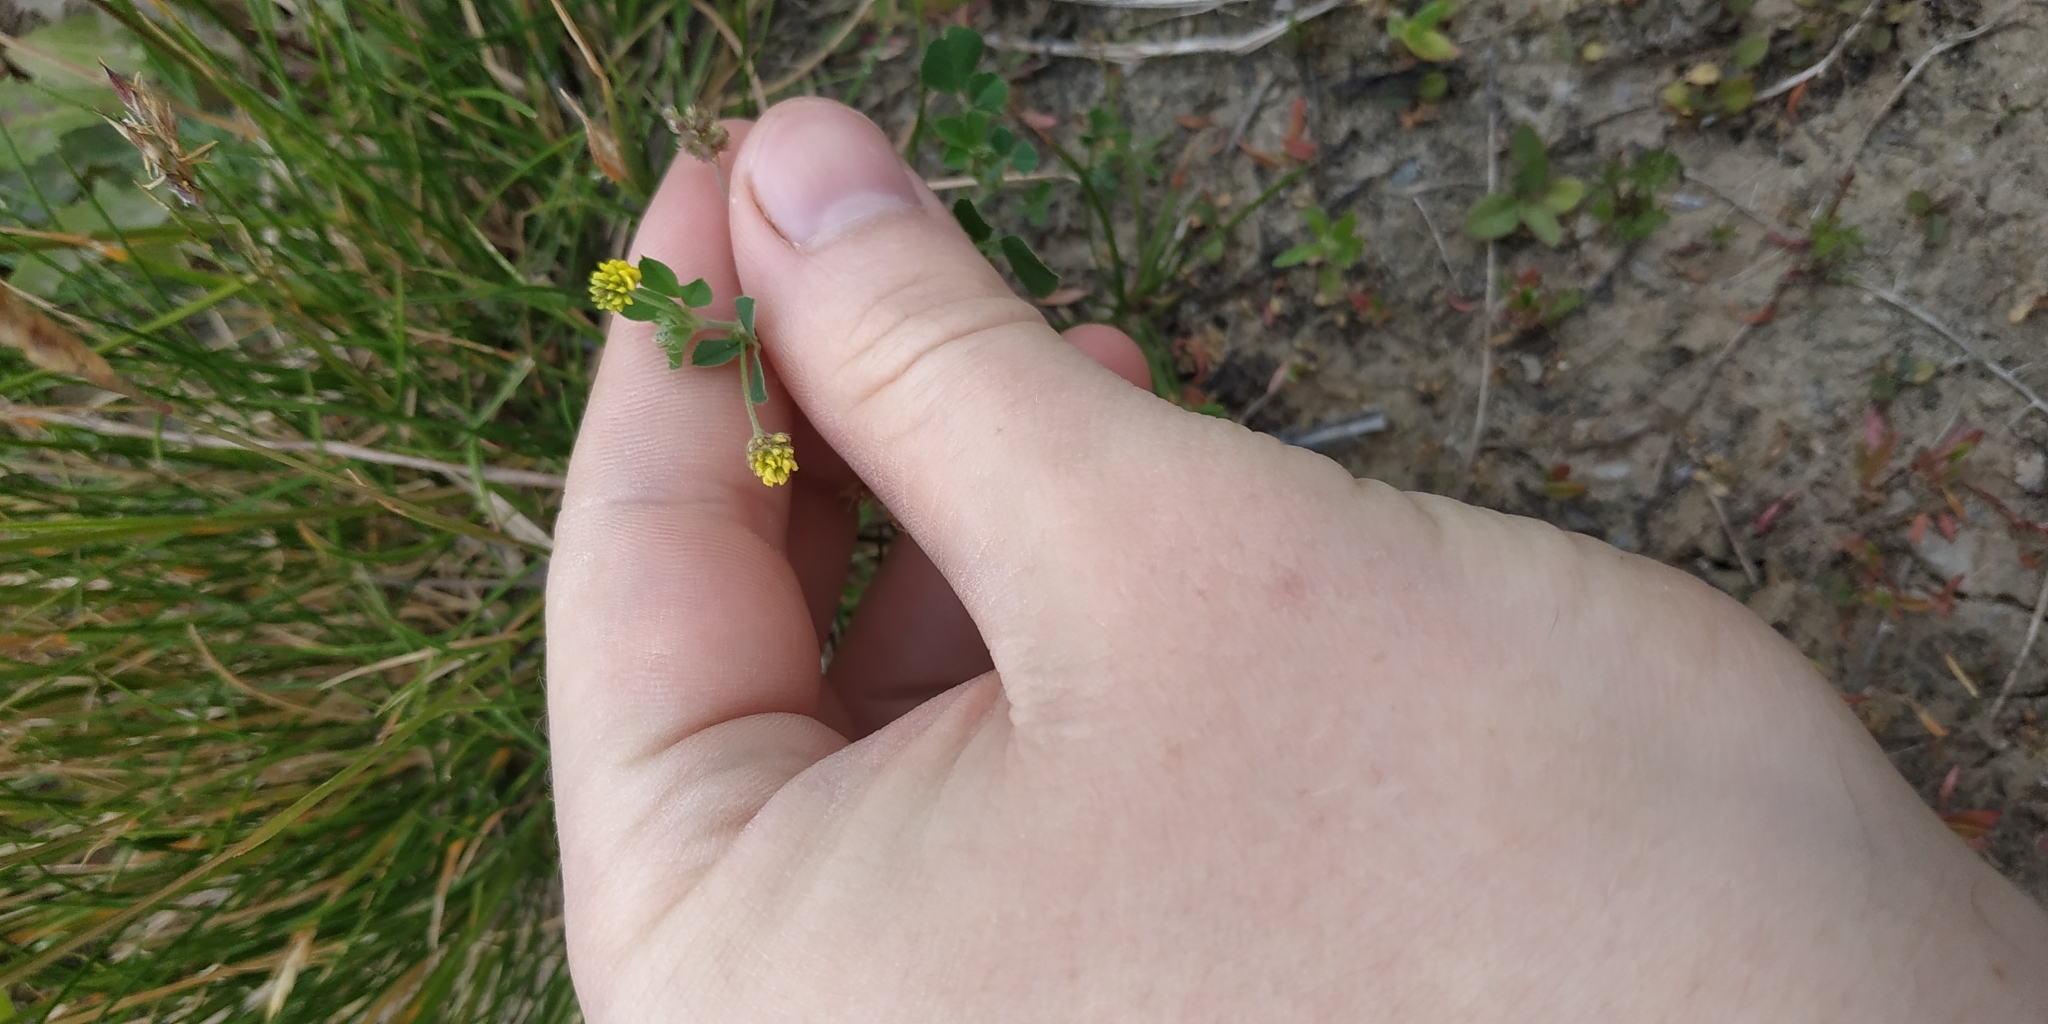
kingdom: Plantae
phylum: Tracheophyta
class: Magnoliopsida
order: Fabales
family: Fabaceae
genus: Medicago
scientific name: Medicago lupulina
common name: Black medick
